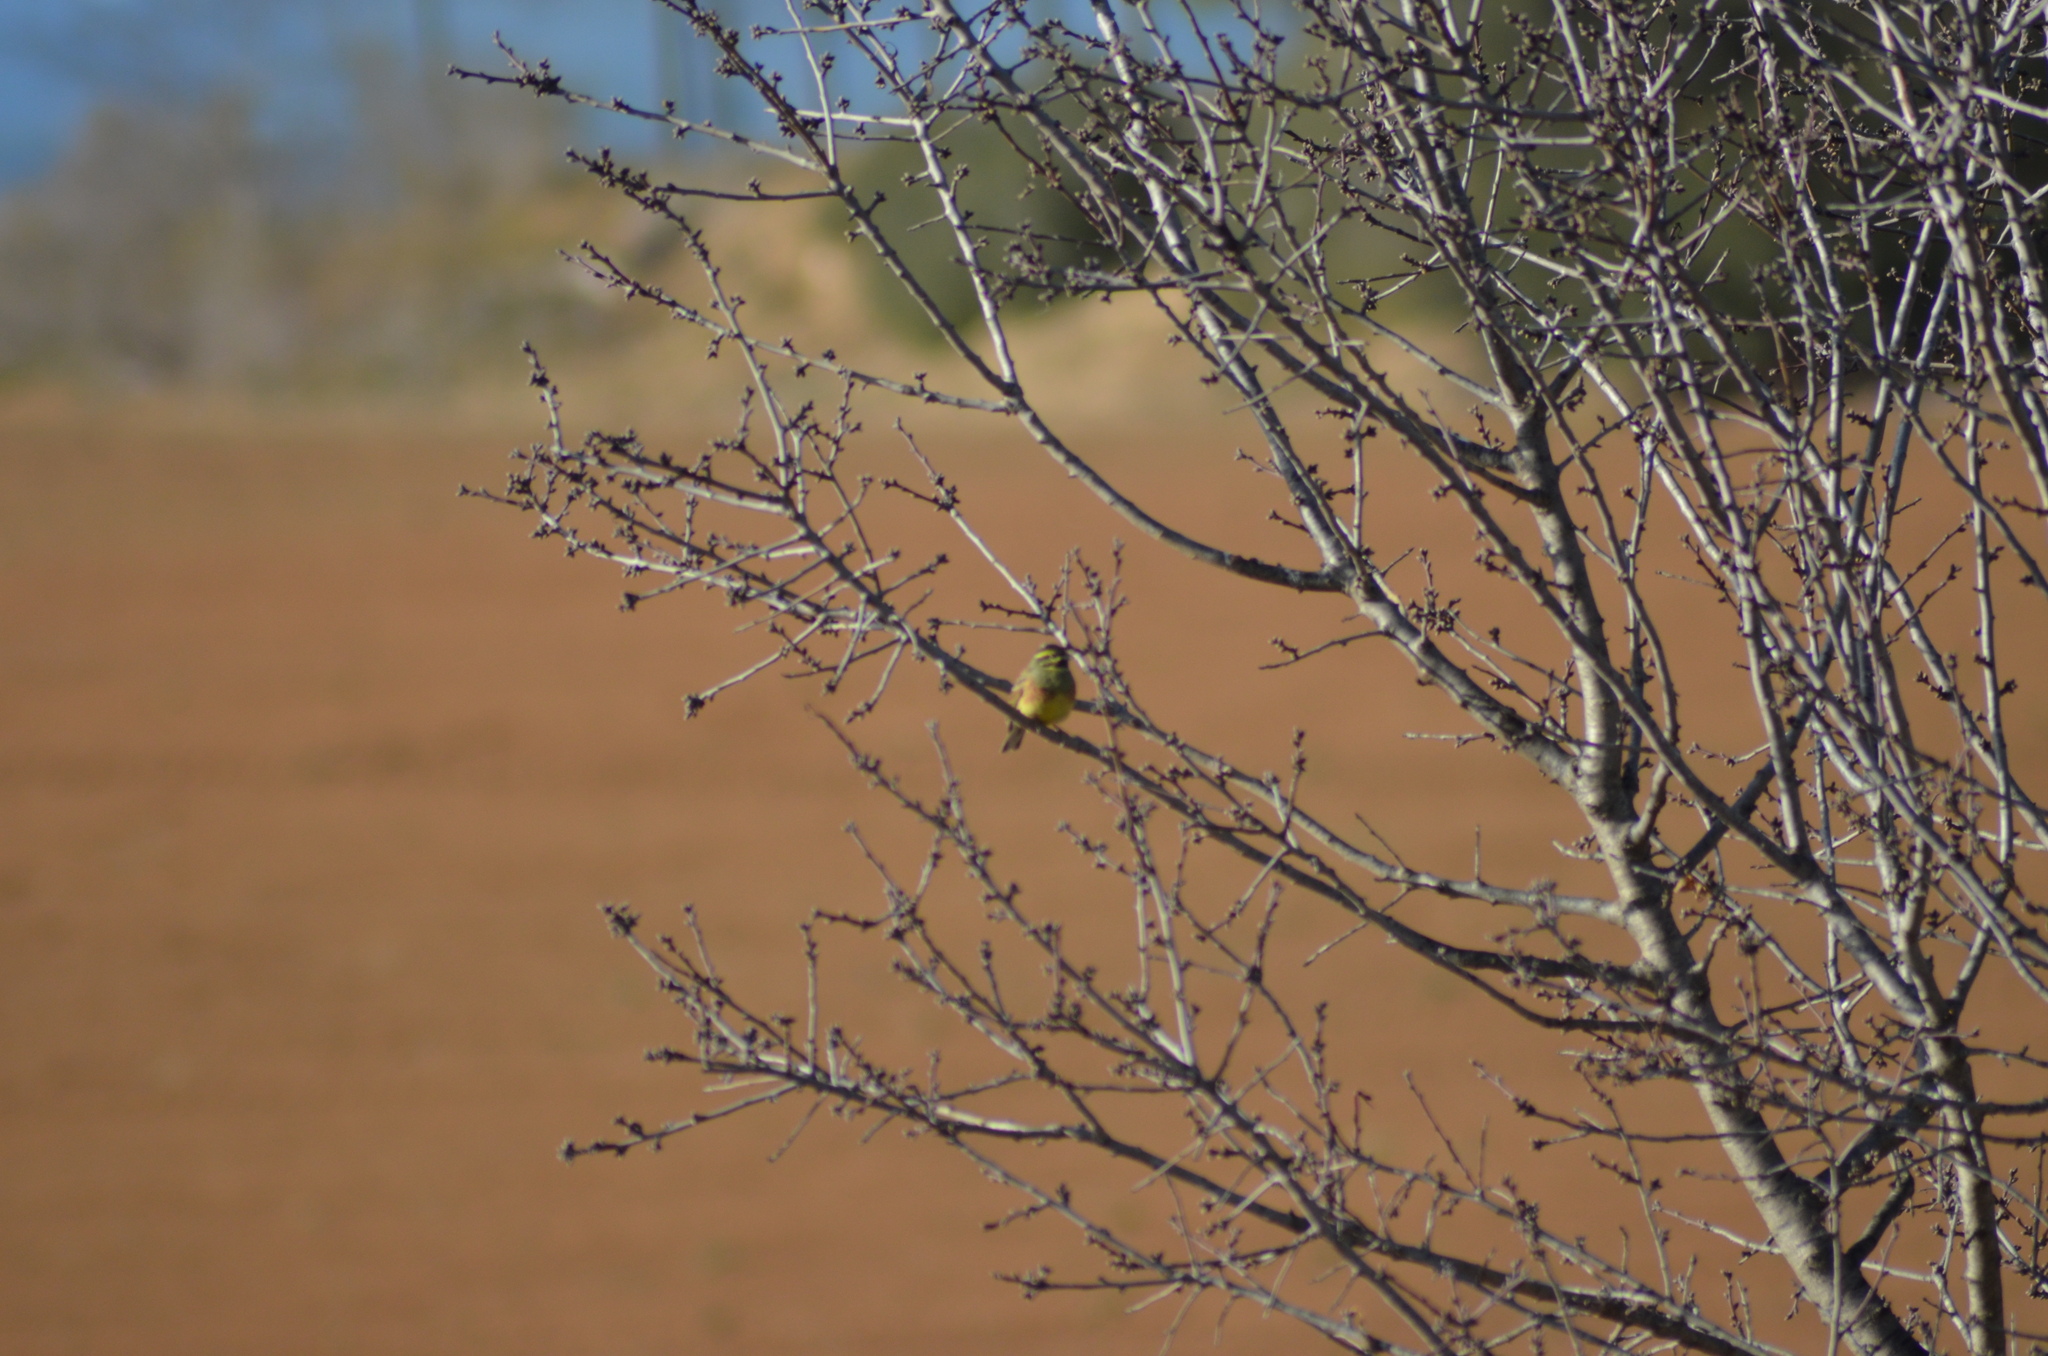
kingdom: Animalia
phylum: Chordata
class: Aves
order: Passeriformes
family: Emberizidae
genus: Emberiza
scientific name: Emberiza cirlus
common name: Cirl bunting
